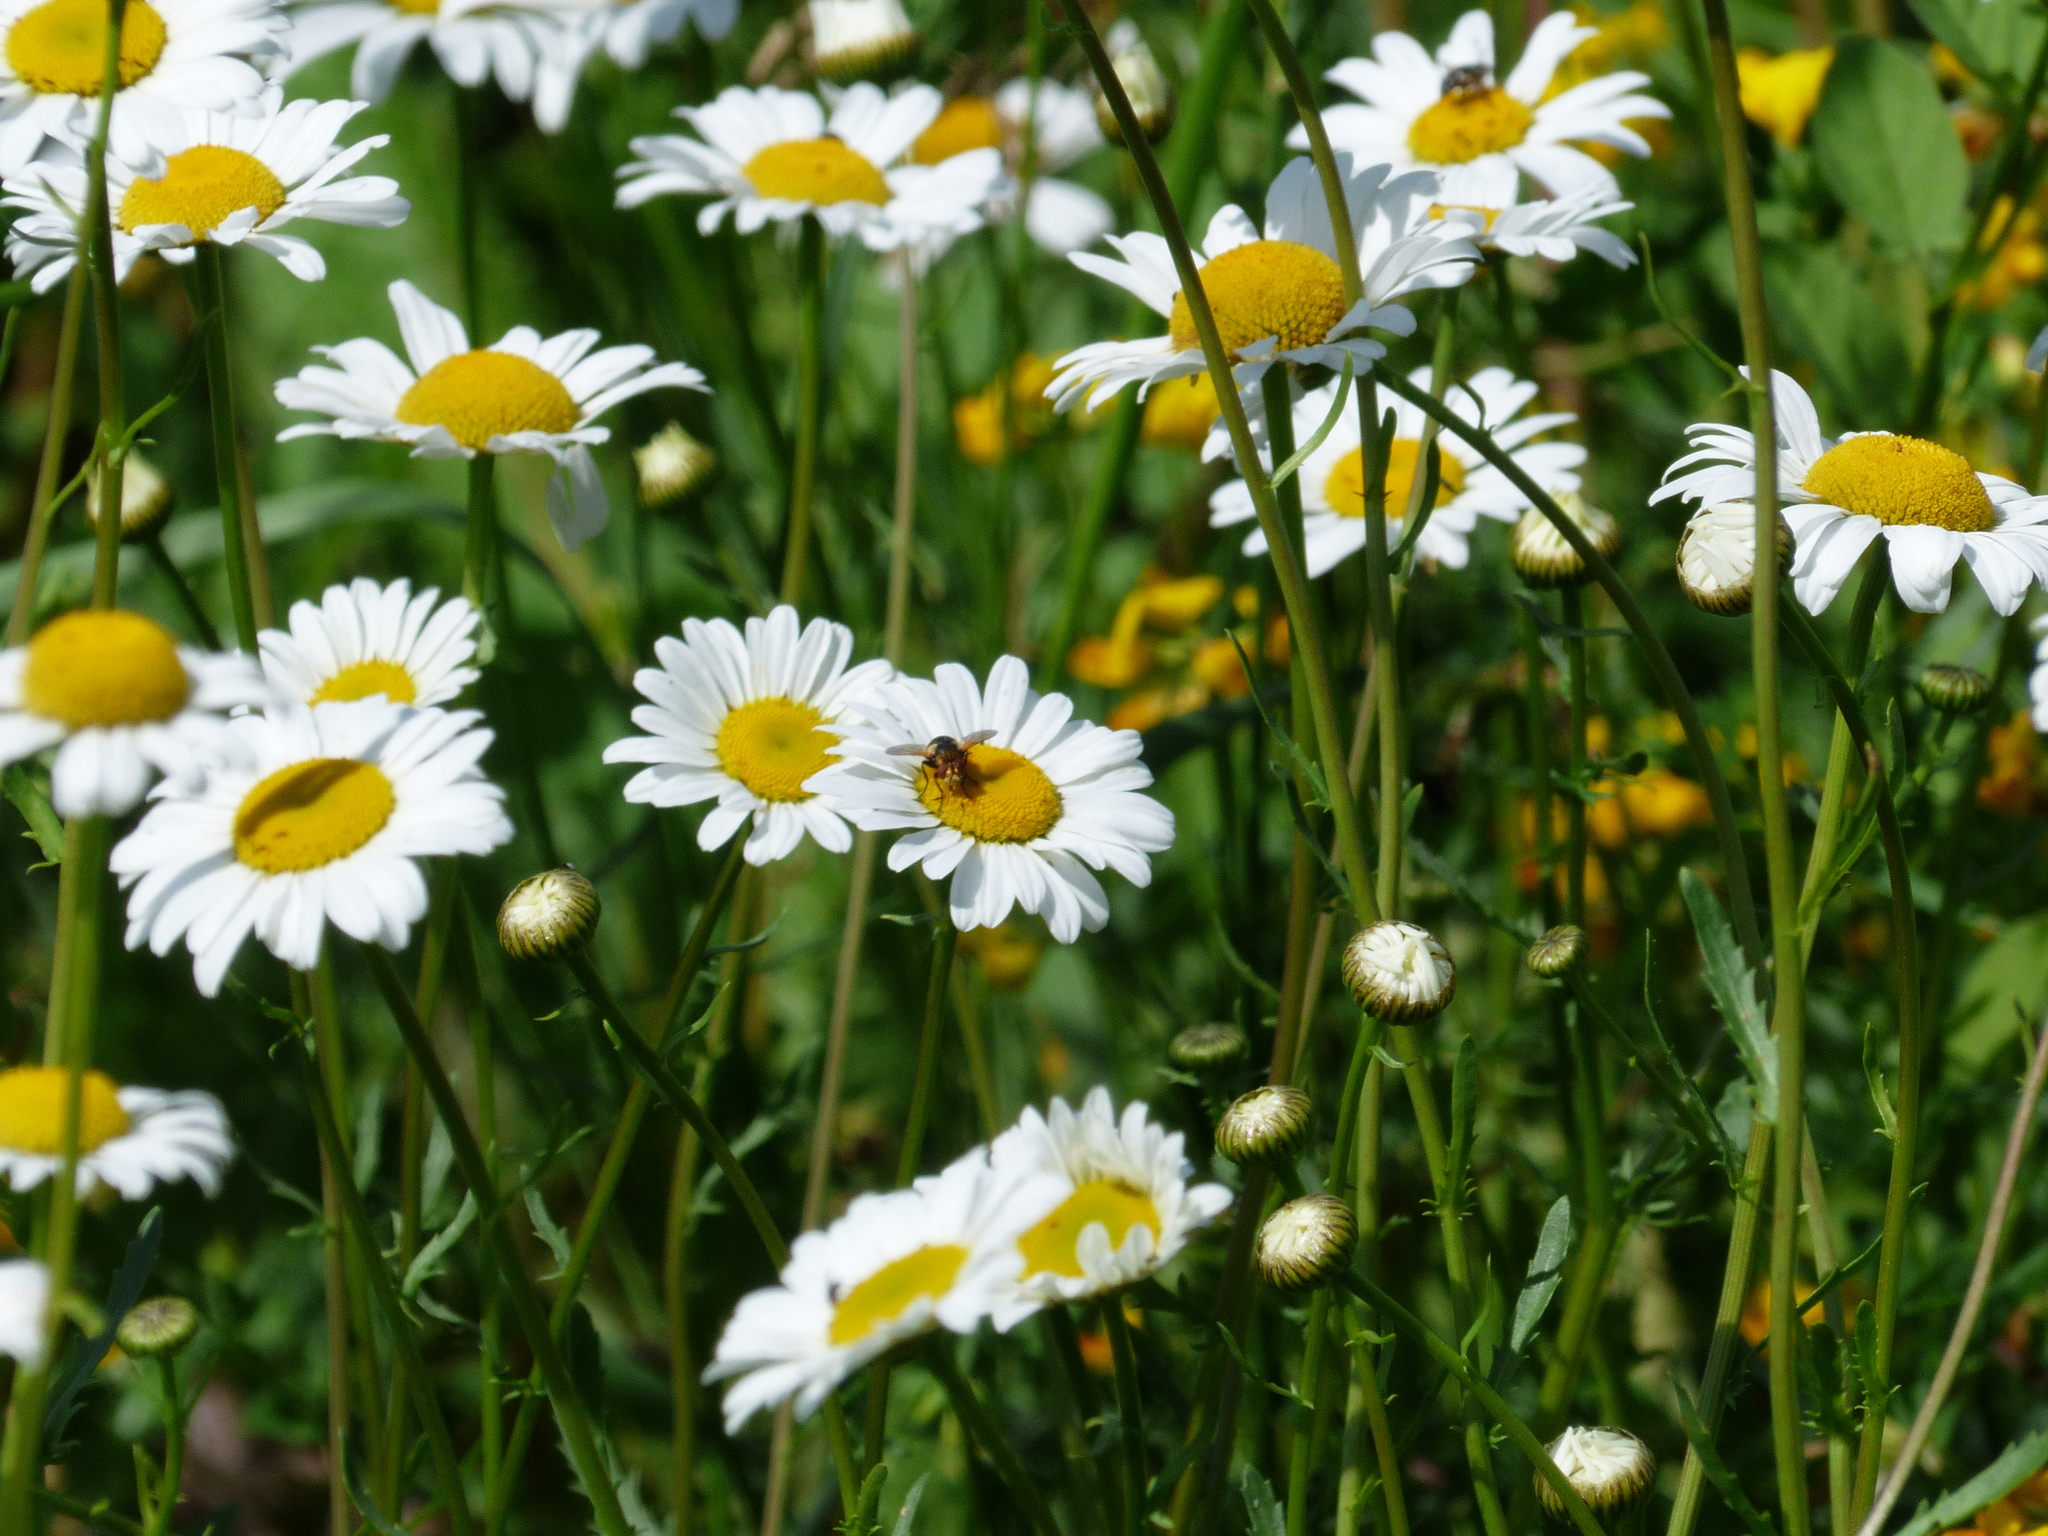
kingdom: Plantae
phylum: Tracheophyta
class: Magnoliopsida
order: Asterales
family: Asteraceae
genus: Leucanthemum
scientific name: Leucanthemum vulgare
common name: Oxeye daisy
